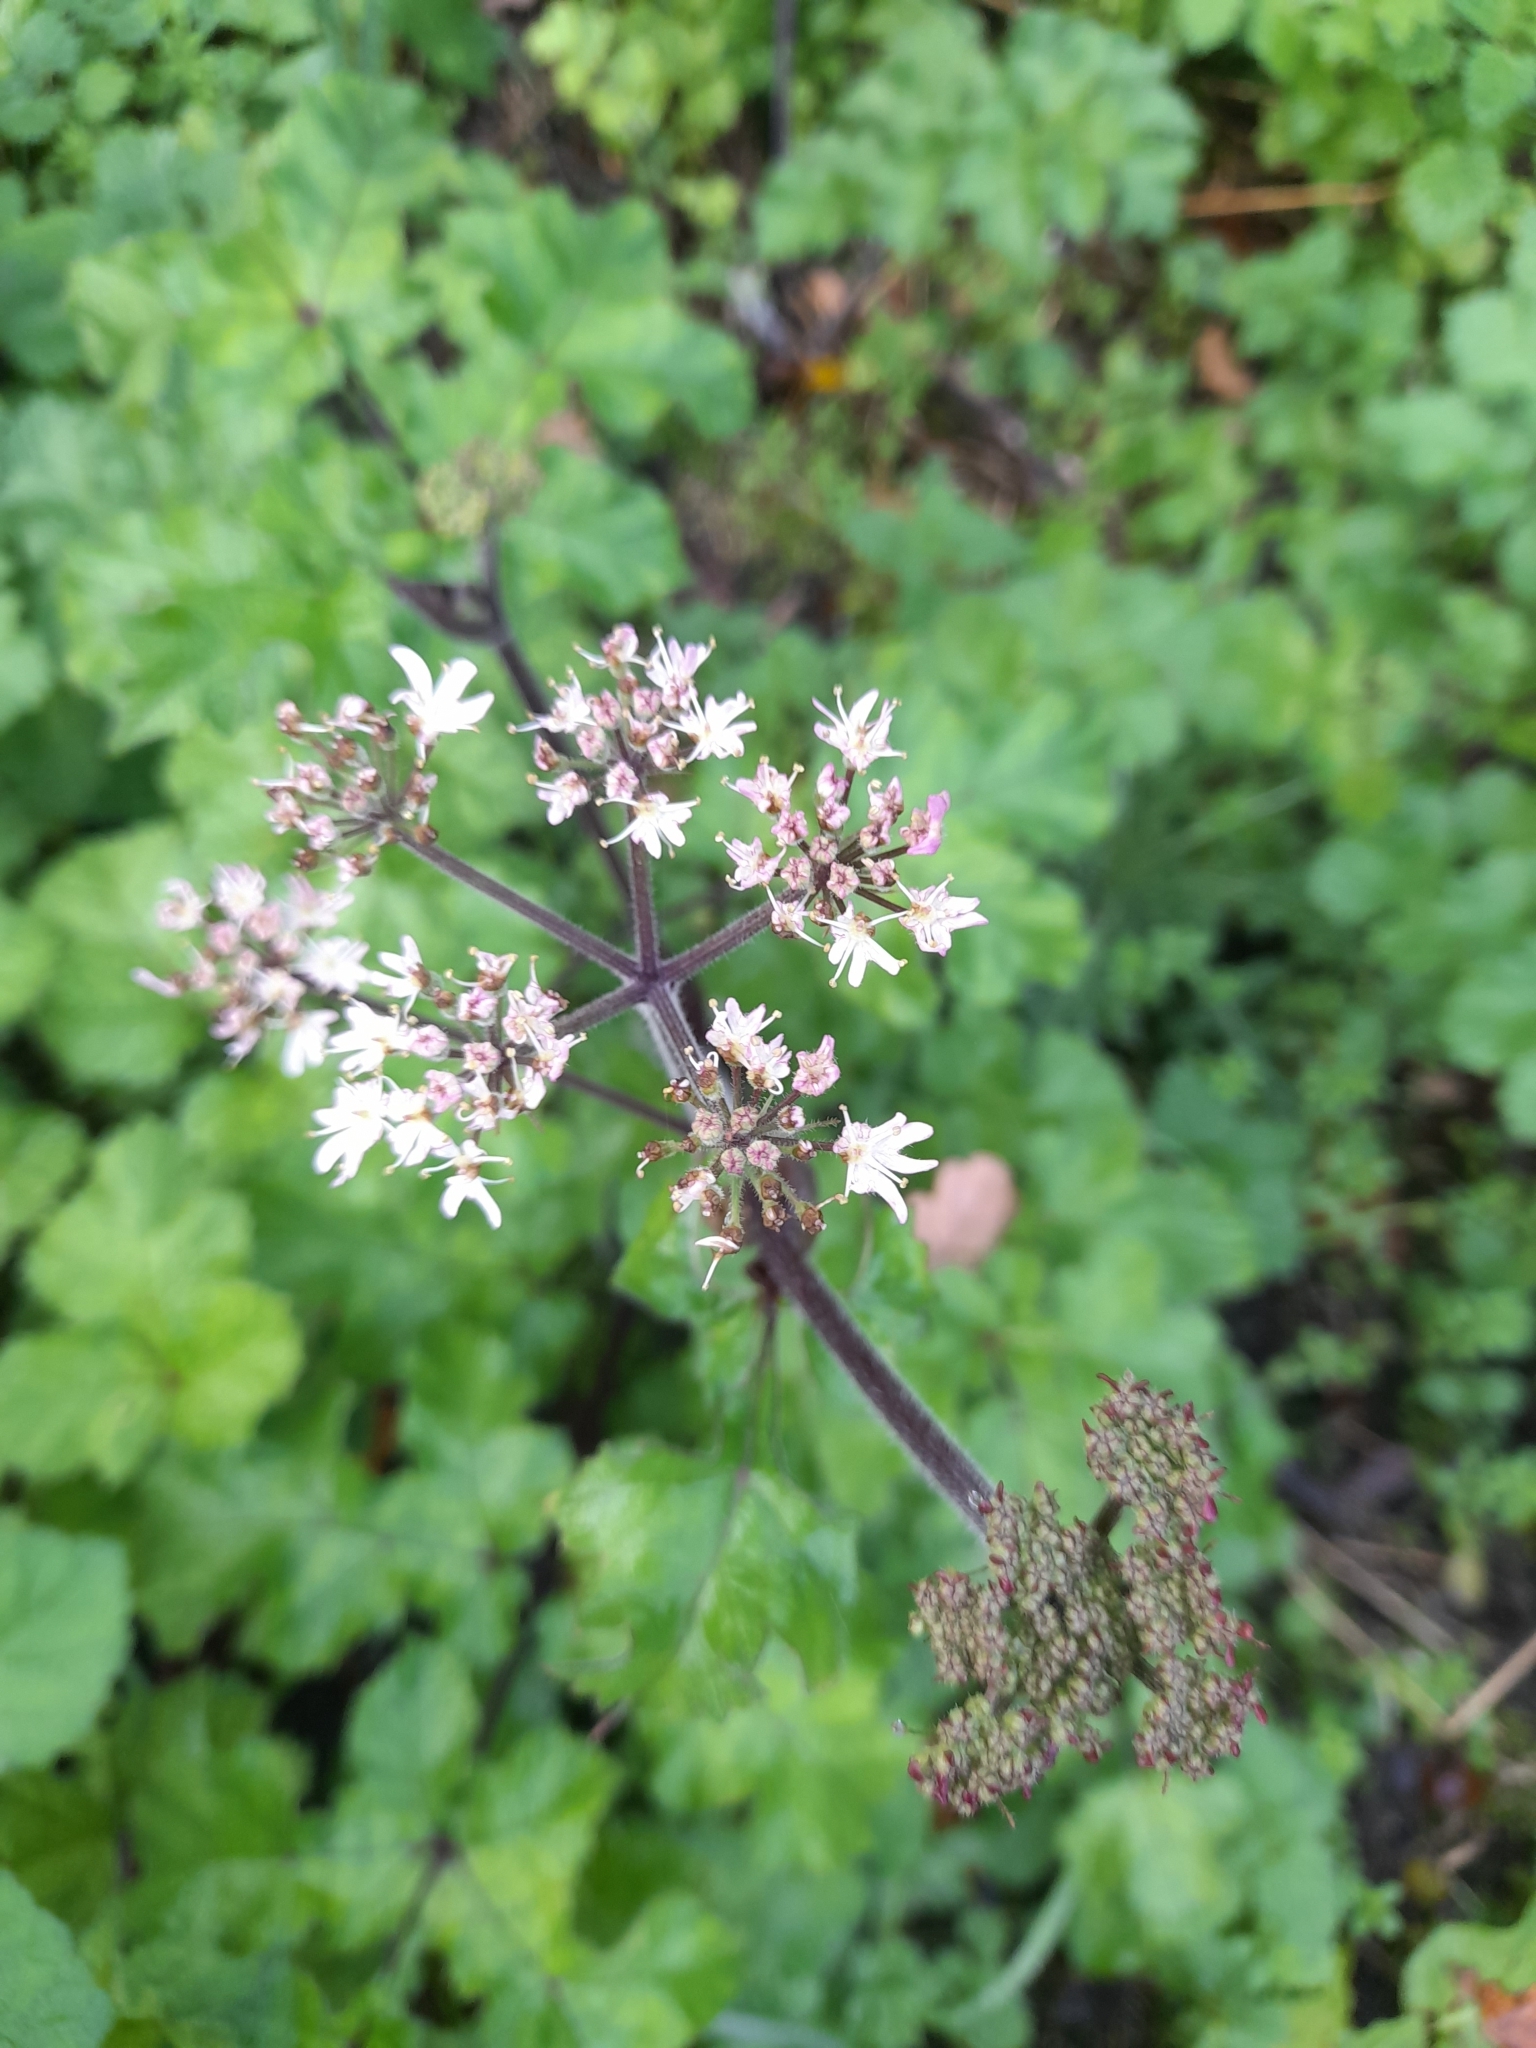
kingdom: Plantae
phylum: Tracheophyta
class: Magnoliopsida
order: Apiales
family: Apiaceae
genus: Heracleum
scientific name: Heracleum sphondylium
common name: Hogweed
